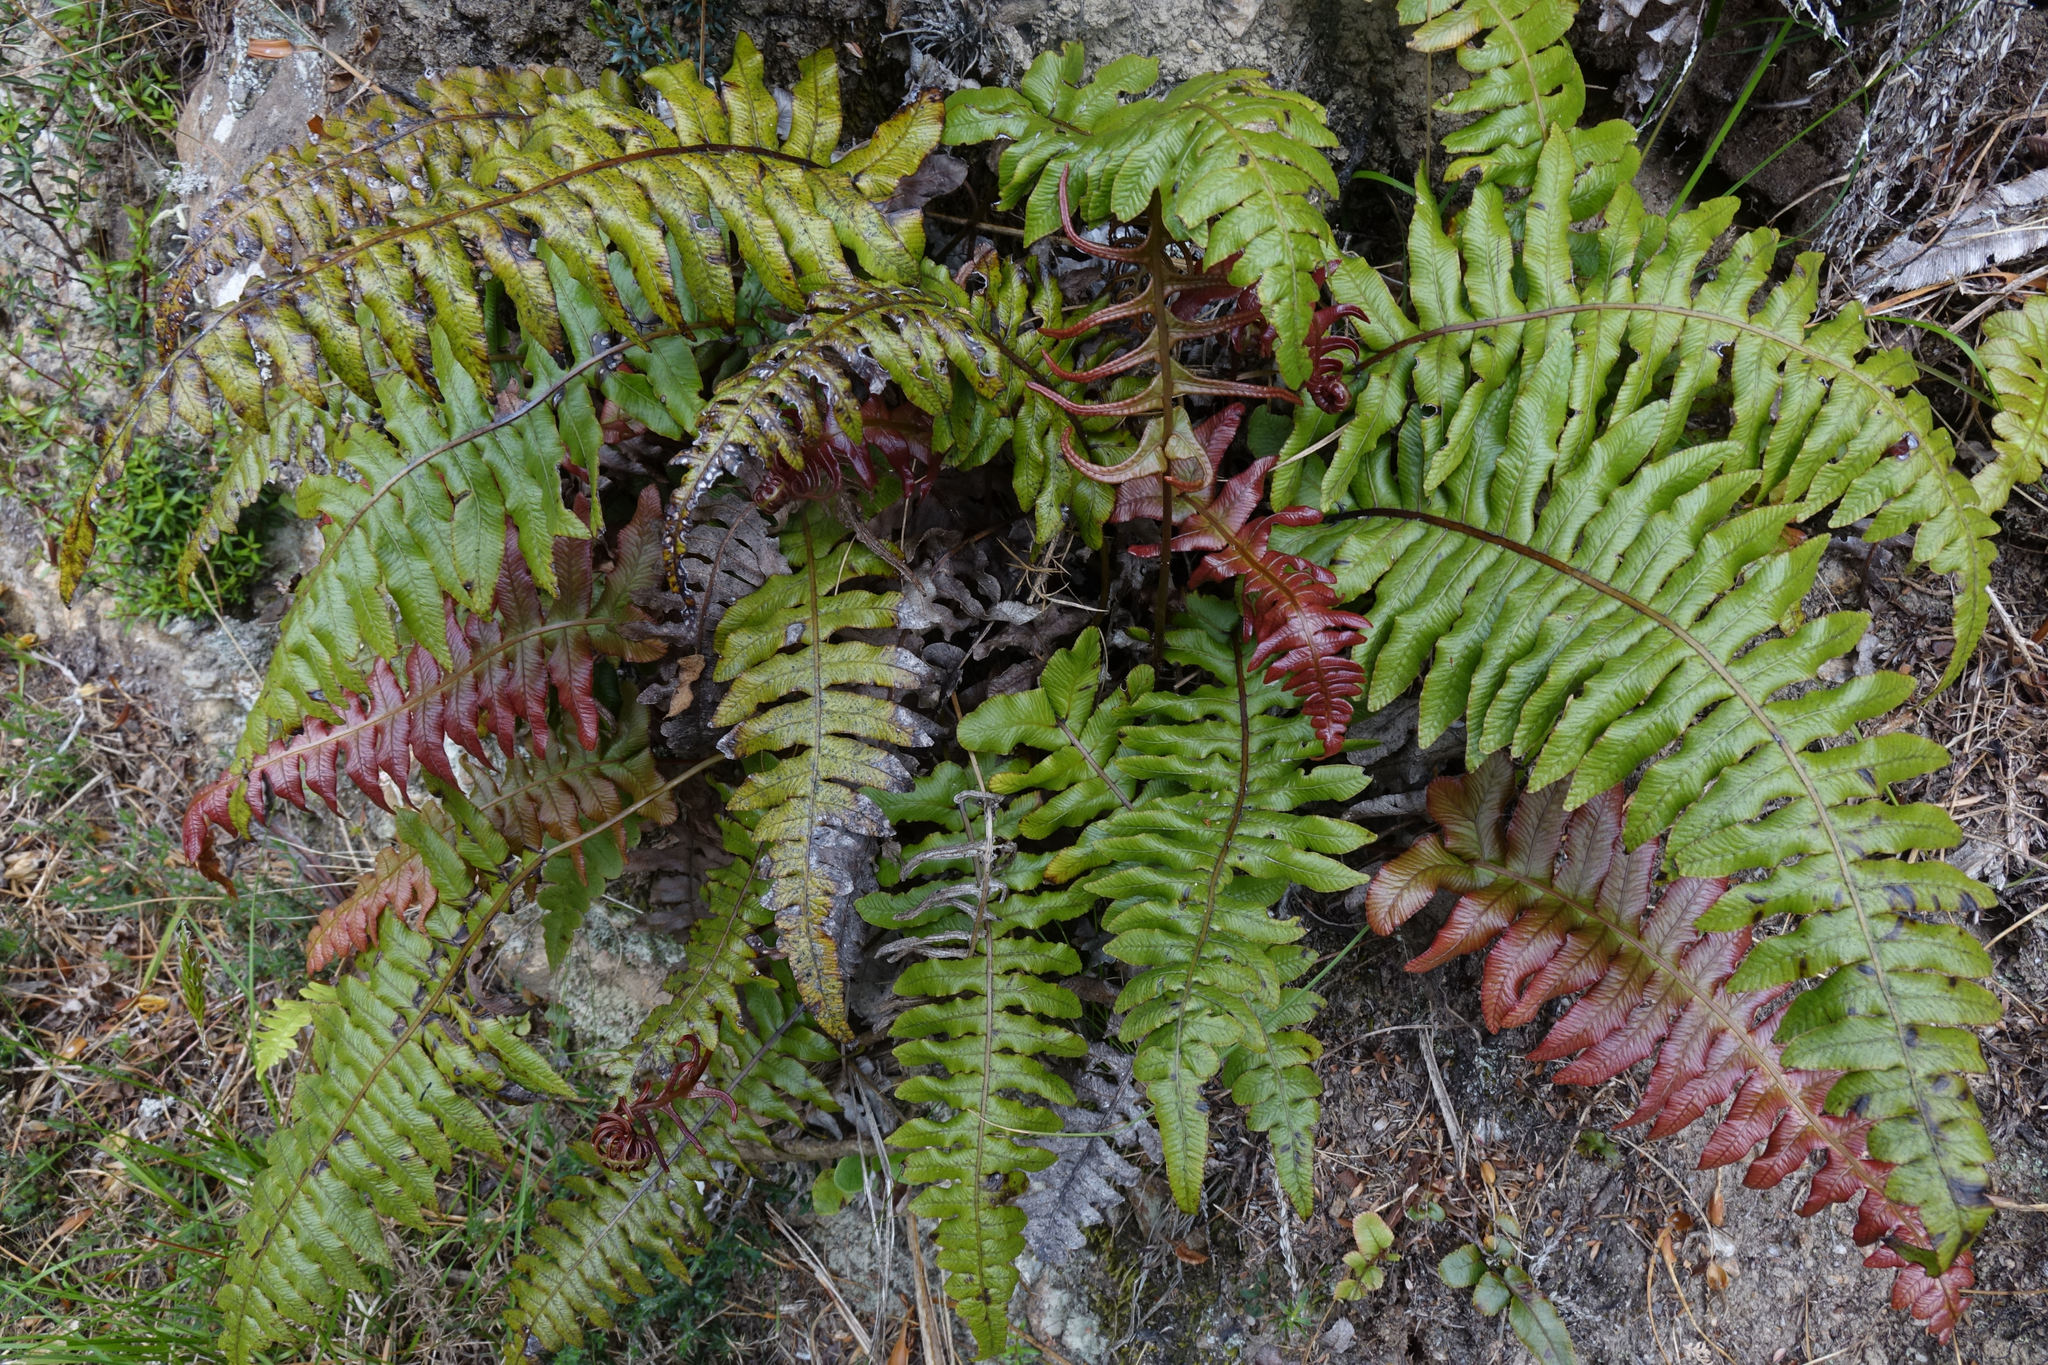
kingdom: Plantae
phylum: Tracheophyta
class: Polypodiopsida
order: Polypodiales
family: Blechnaceae
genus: Cranfillia
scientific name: Cranfillia vulcanica
